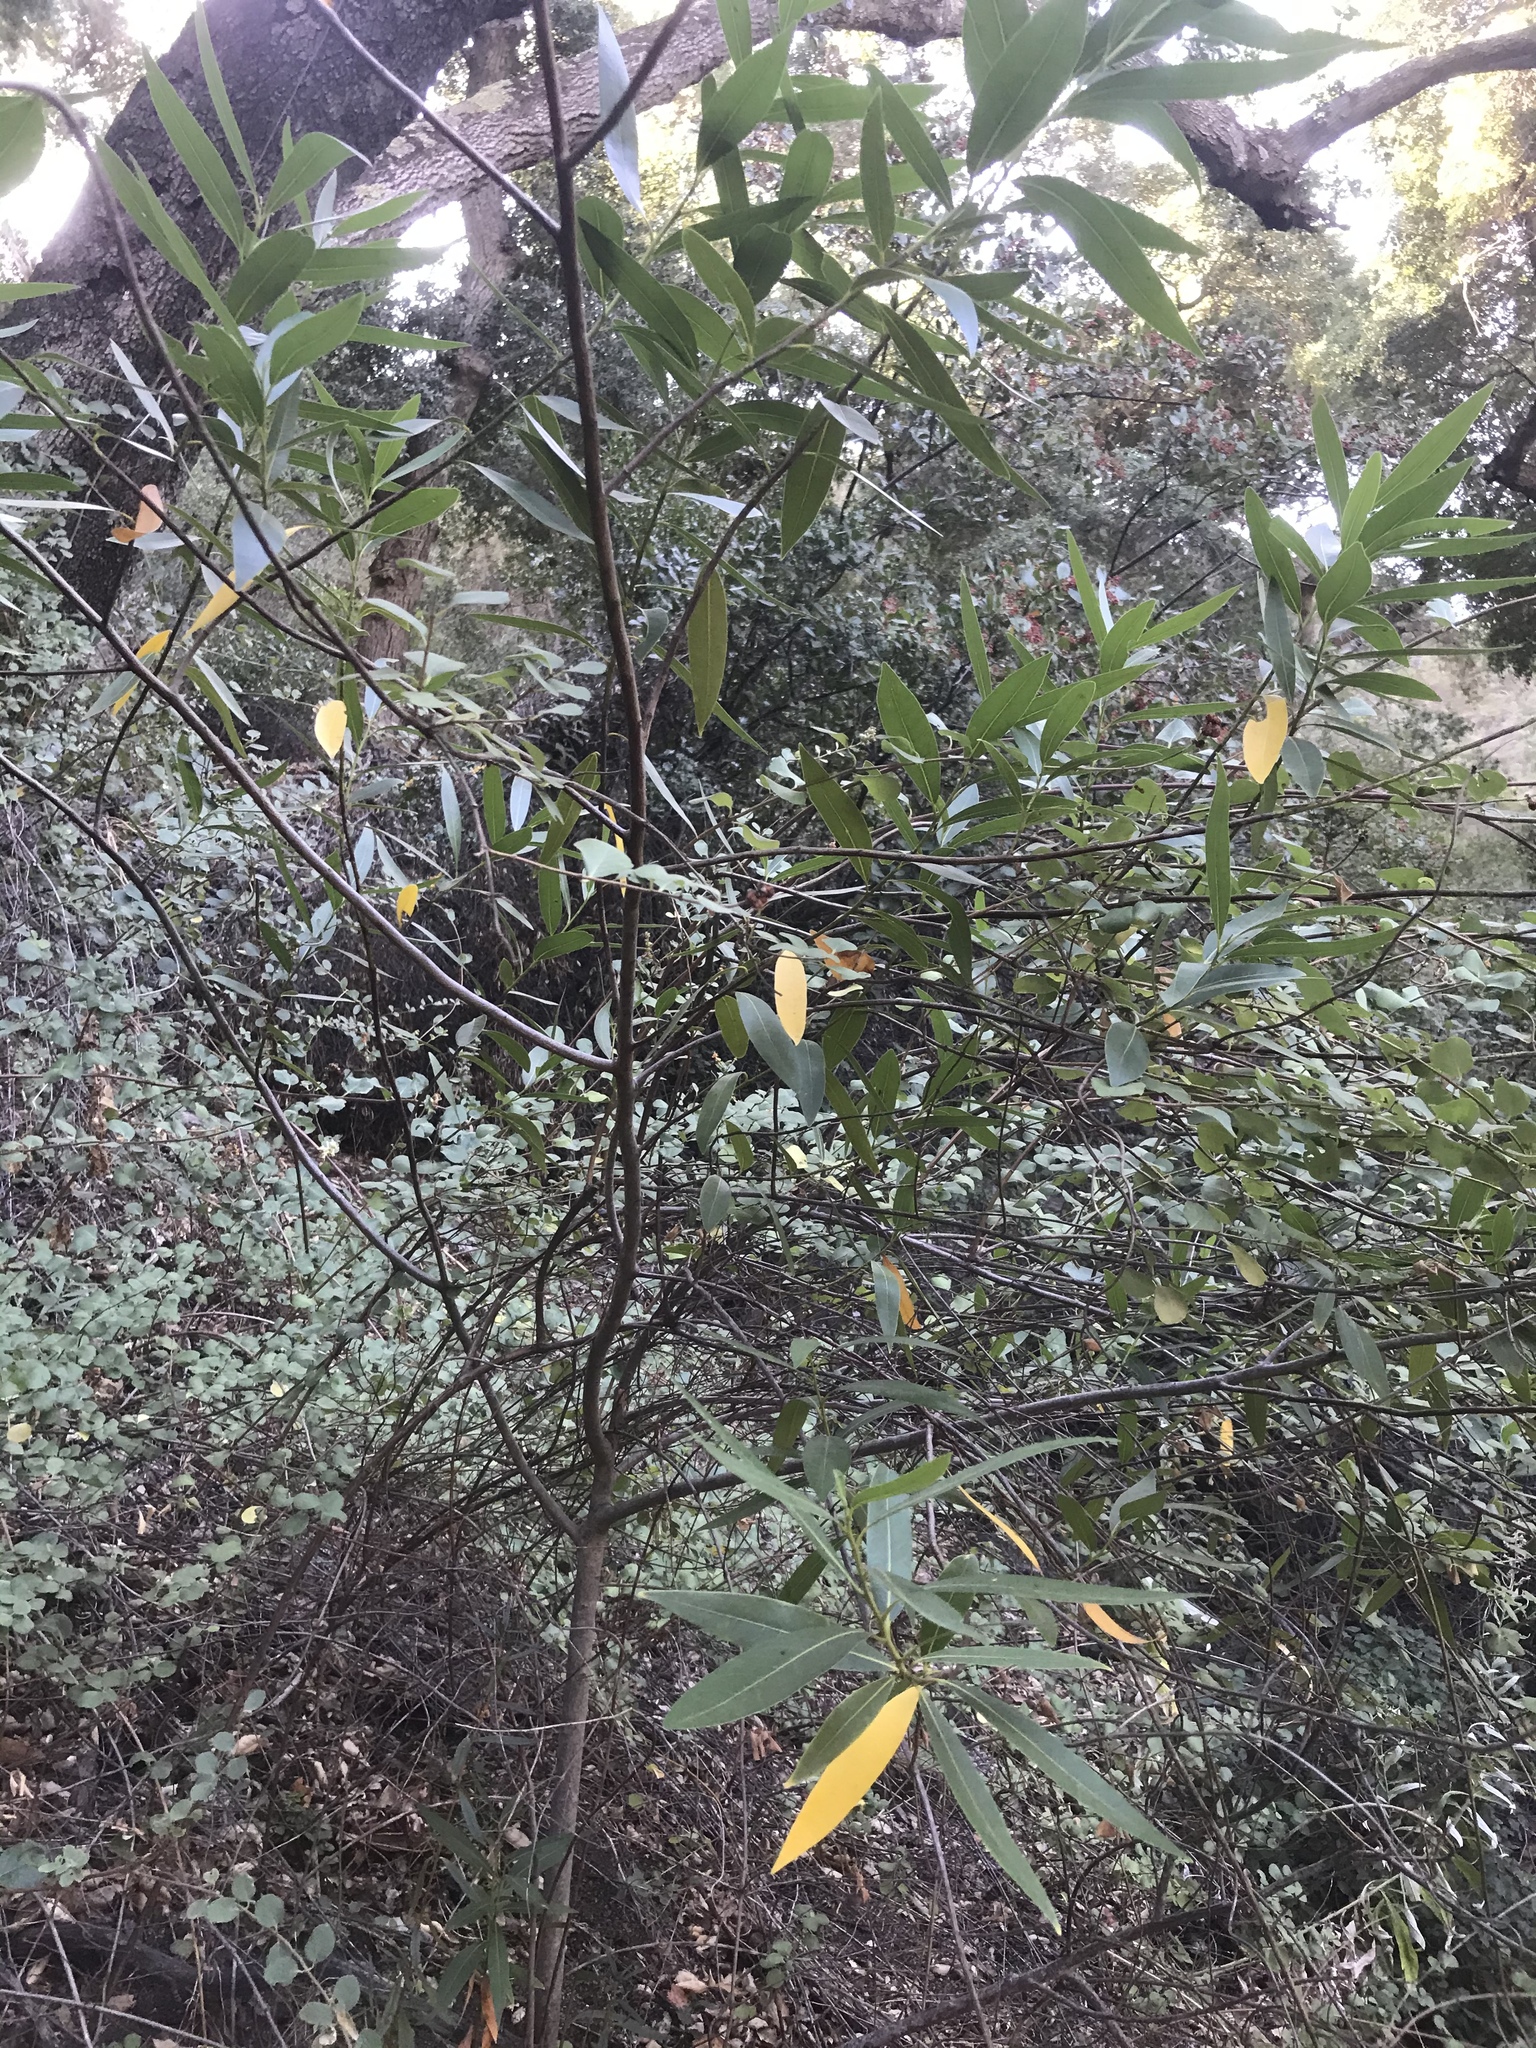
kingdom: Plantae
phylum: Tracheophyta
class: Magnoliopsida
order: Laurales
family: Lauraceae
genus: Umbellularia
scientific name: Umbellularia californica
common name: California bay
